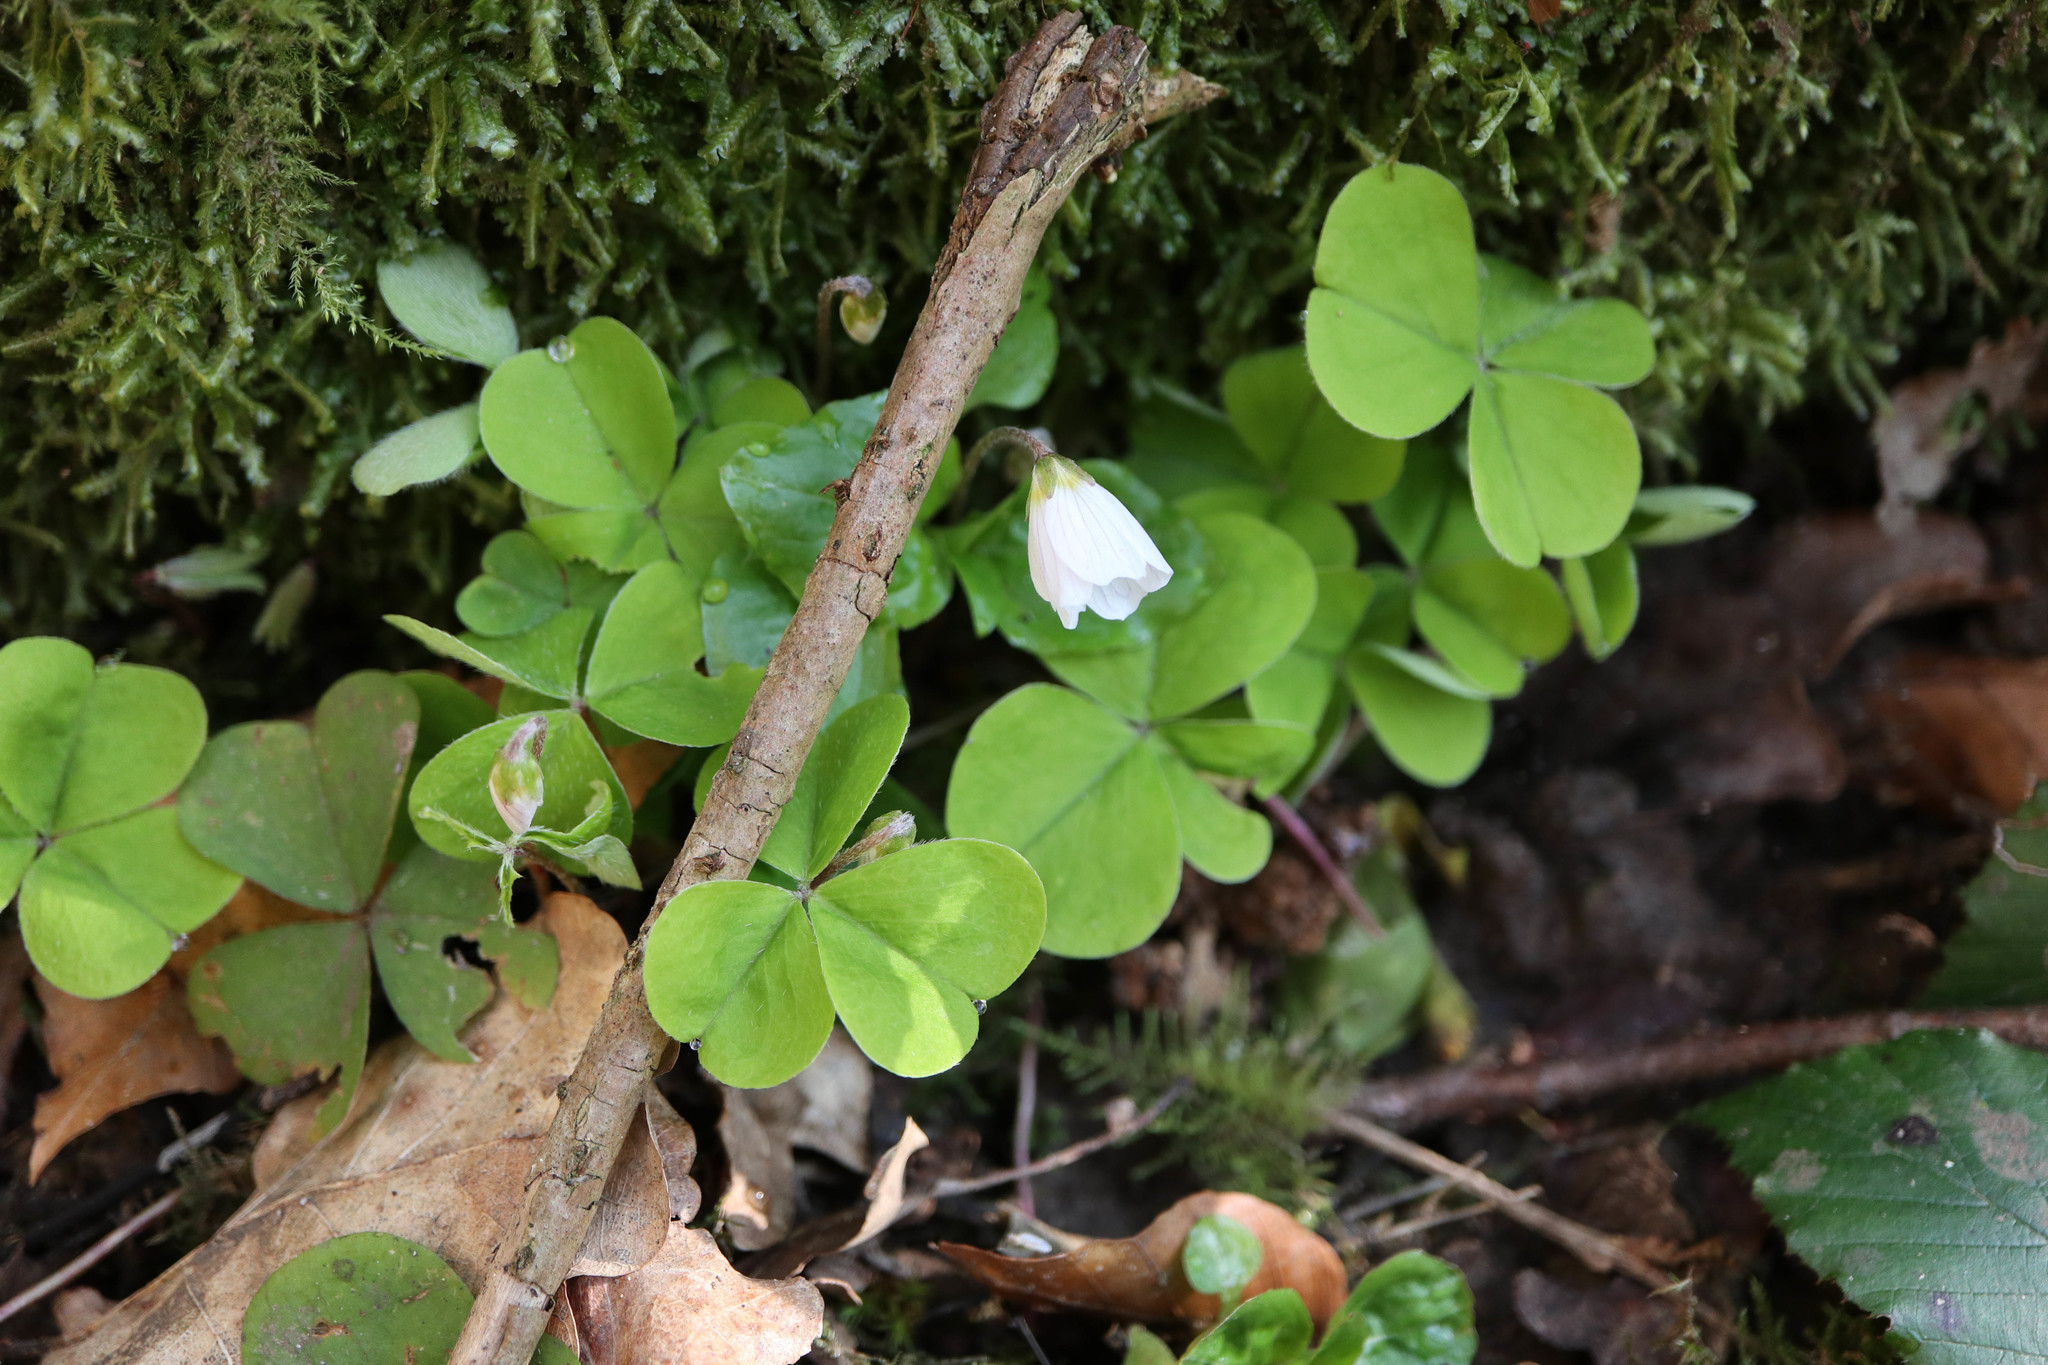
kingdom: Plantae
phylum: Tracheophyta
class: Magnoliopsida
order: Oxalidales
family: Oxalidaceae
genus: Oxalis
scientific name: Oxalis acetosella
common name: Wood-sorrel
